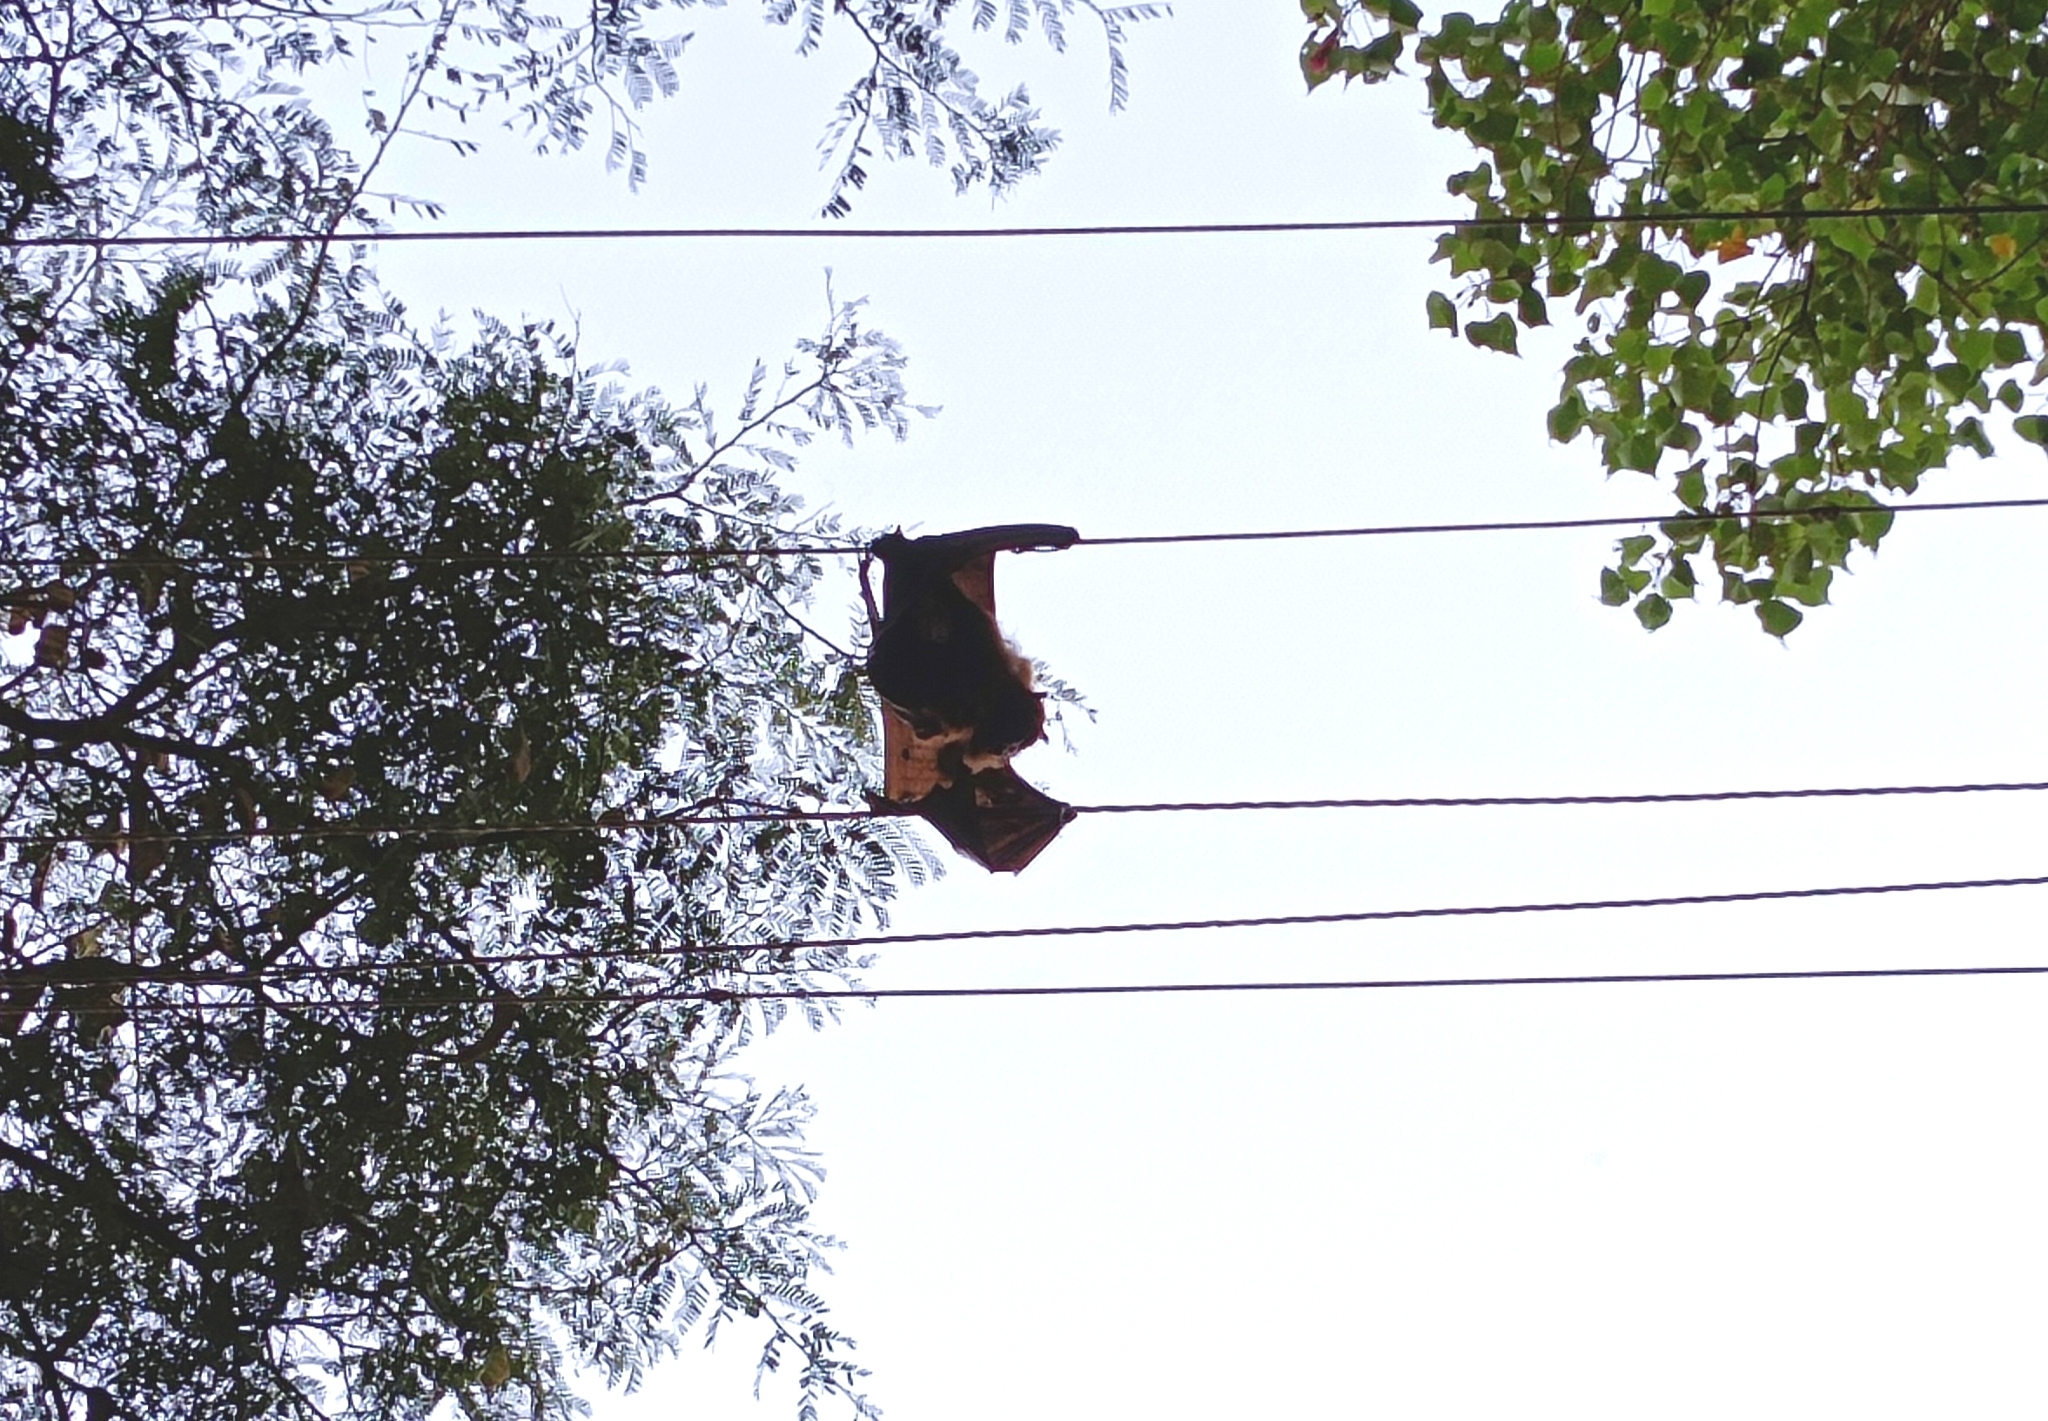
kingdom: Animalia
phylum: Chordata
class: Mammalia
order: Chiroptera
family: Pteropodidae
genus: Pteropus
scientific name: Pteropus vampyrus
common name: Large flying fox
